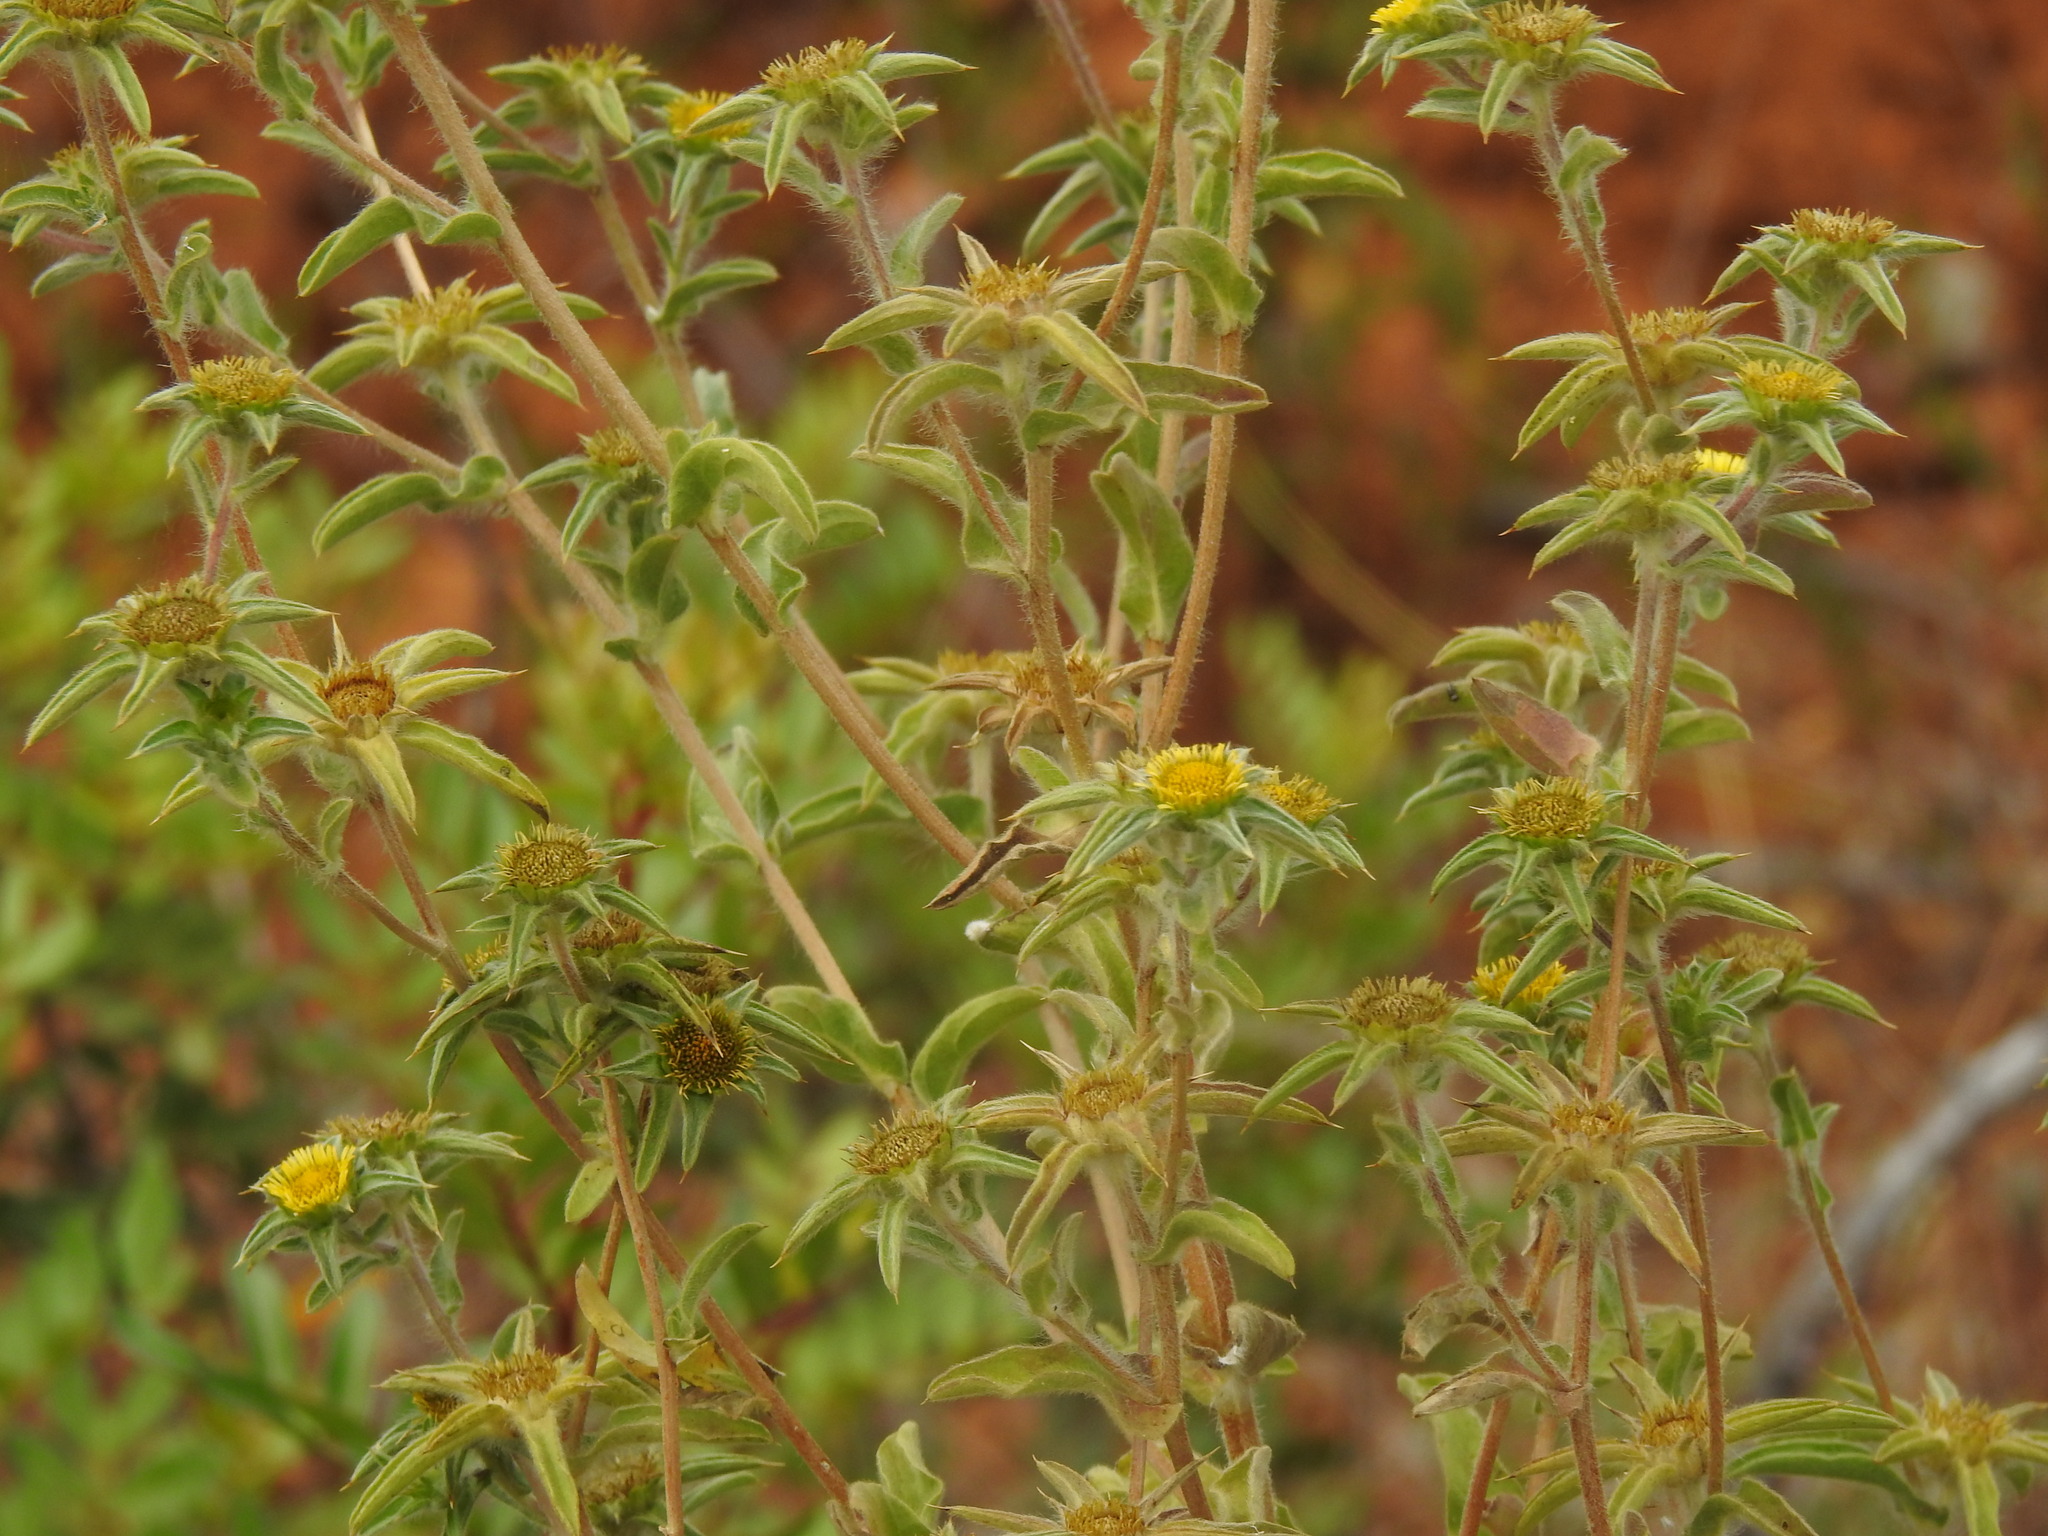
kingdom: Plantae
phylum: Tracheophyta
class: Magnoliopsida
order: Asterales
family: Asteraceae
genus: Pallenis
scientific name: Pallenis spinosa
